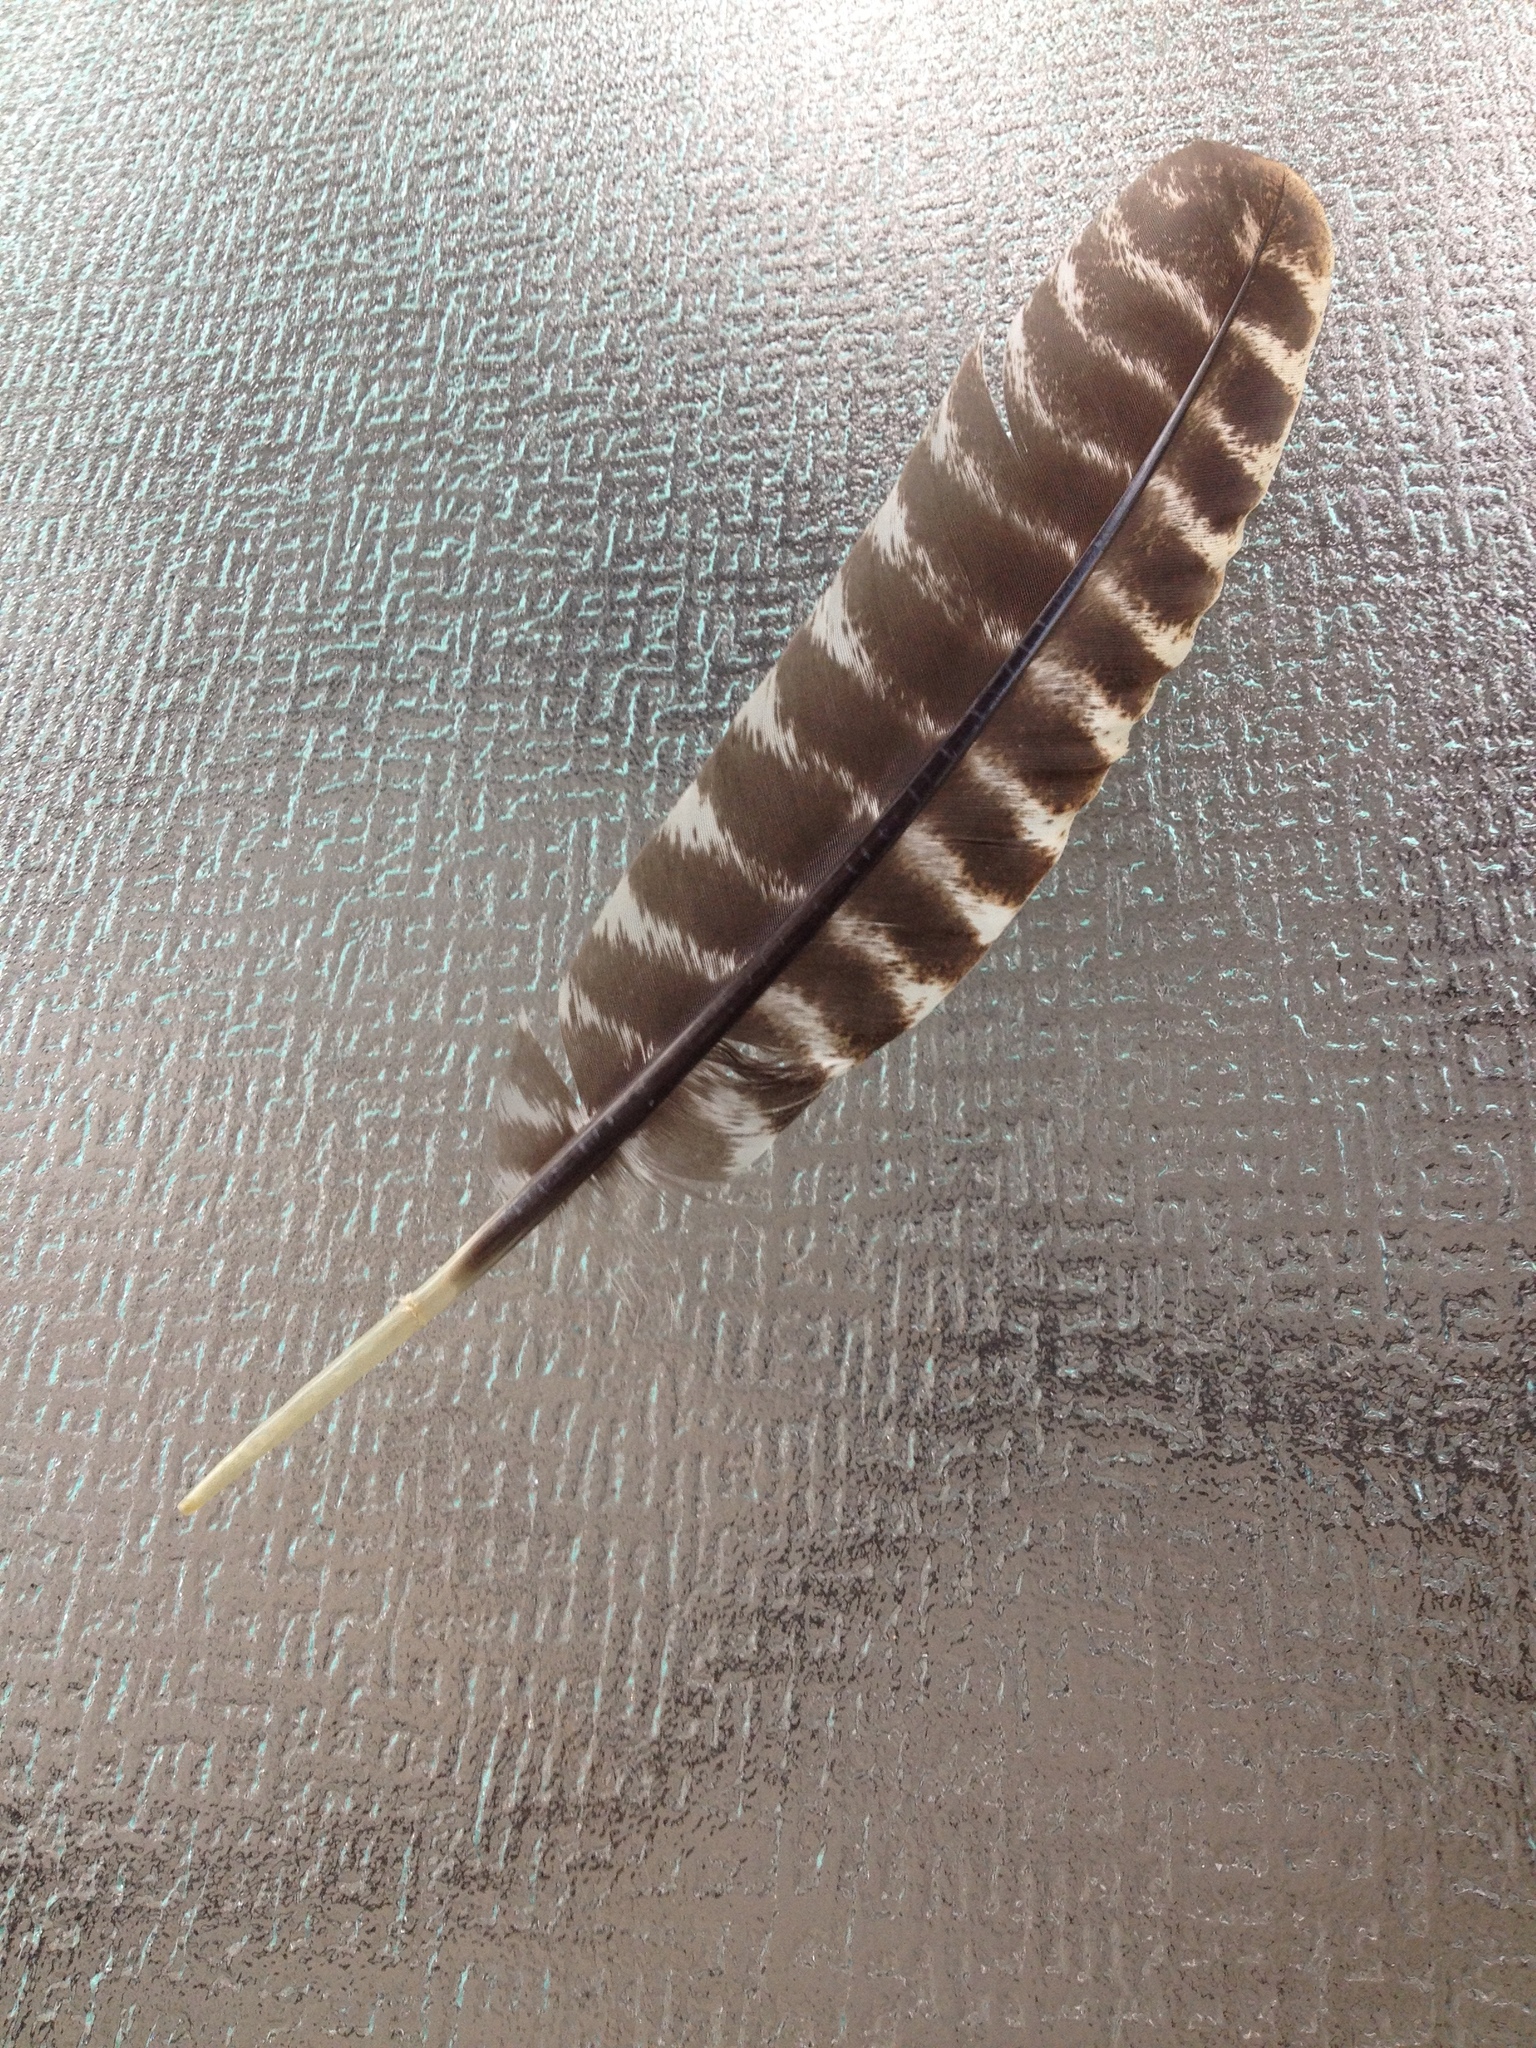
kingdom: Animalia
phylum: Chordata
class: Aves
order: Galliformes
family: Phasianidae
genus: Meleagris
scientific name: Meleagris gallopavo
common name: Wild turkey
